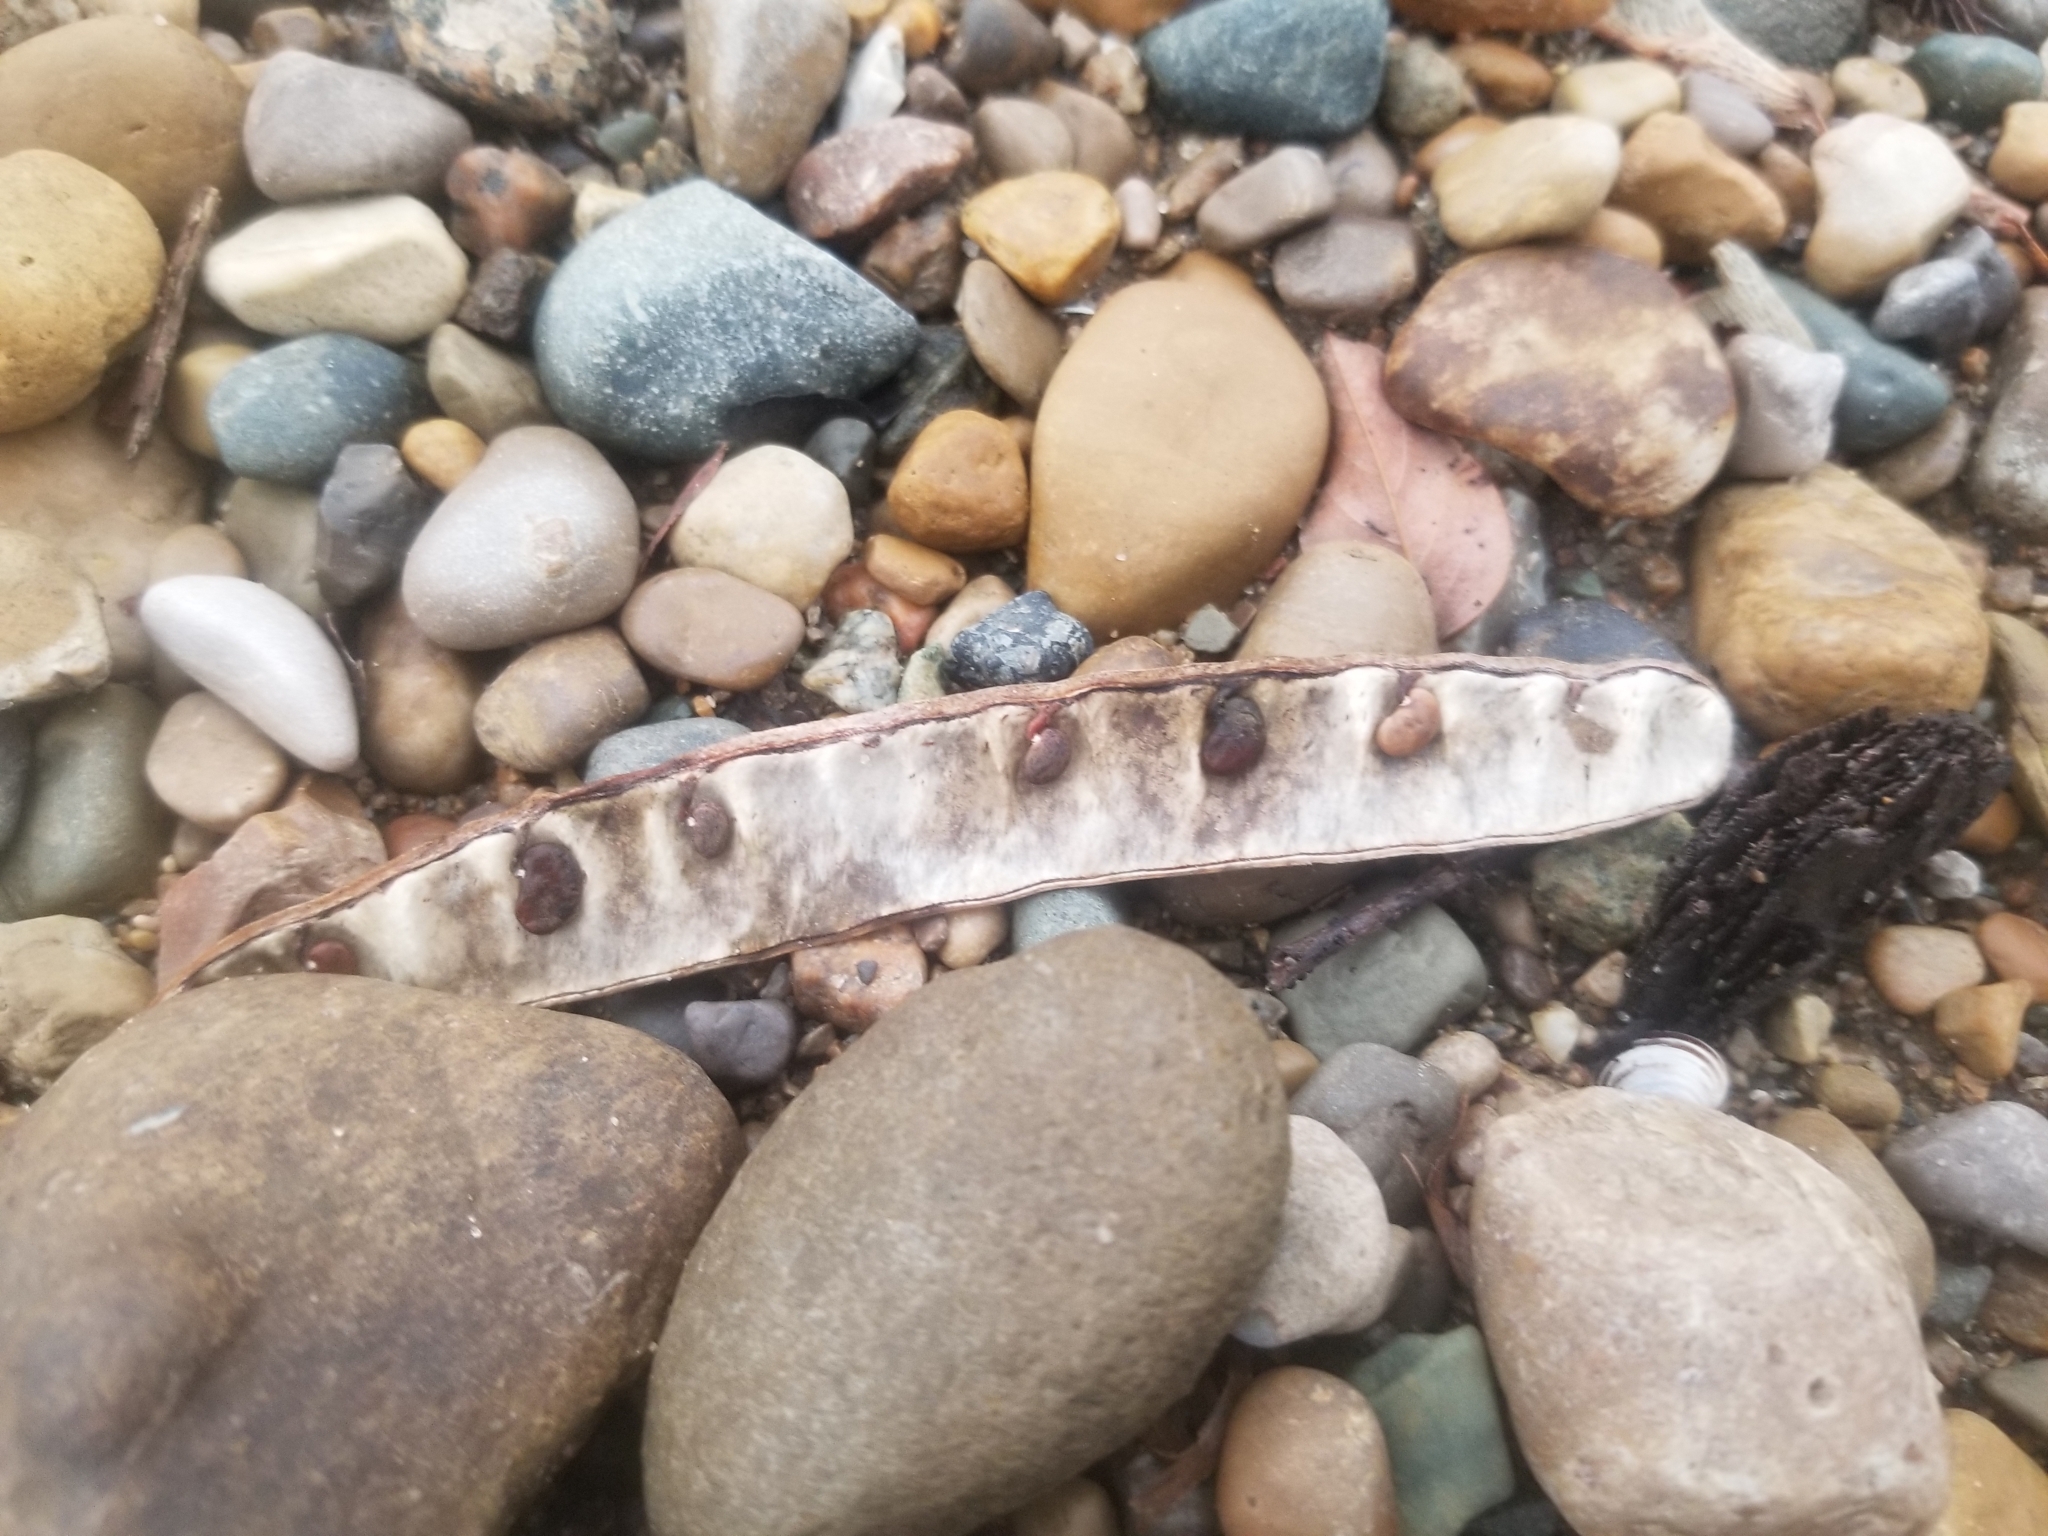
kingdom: Plantae
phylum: Tracheophyta
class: Magnoliopsida
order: Fabales
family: Fabaceae
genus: Robinia
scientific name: Robinia pseudoacacia
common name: Black locust
